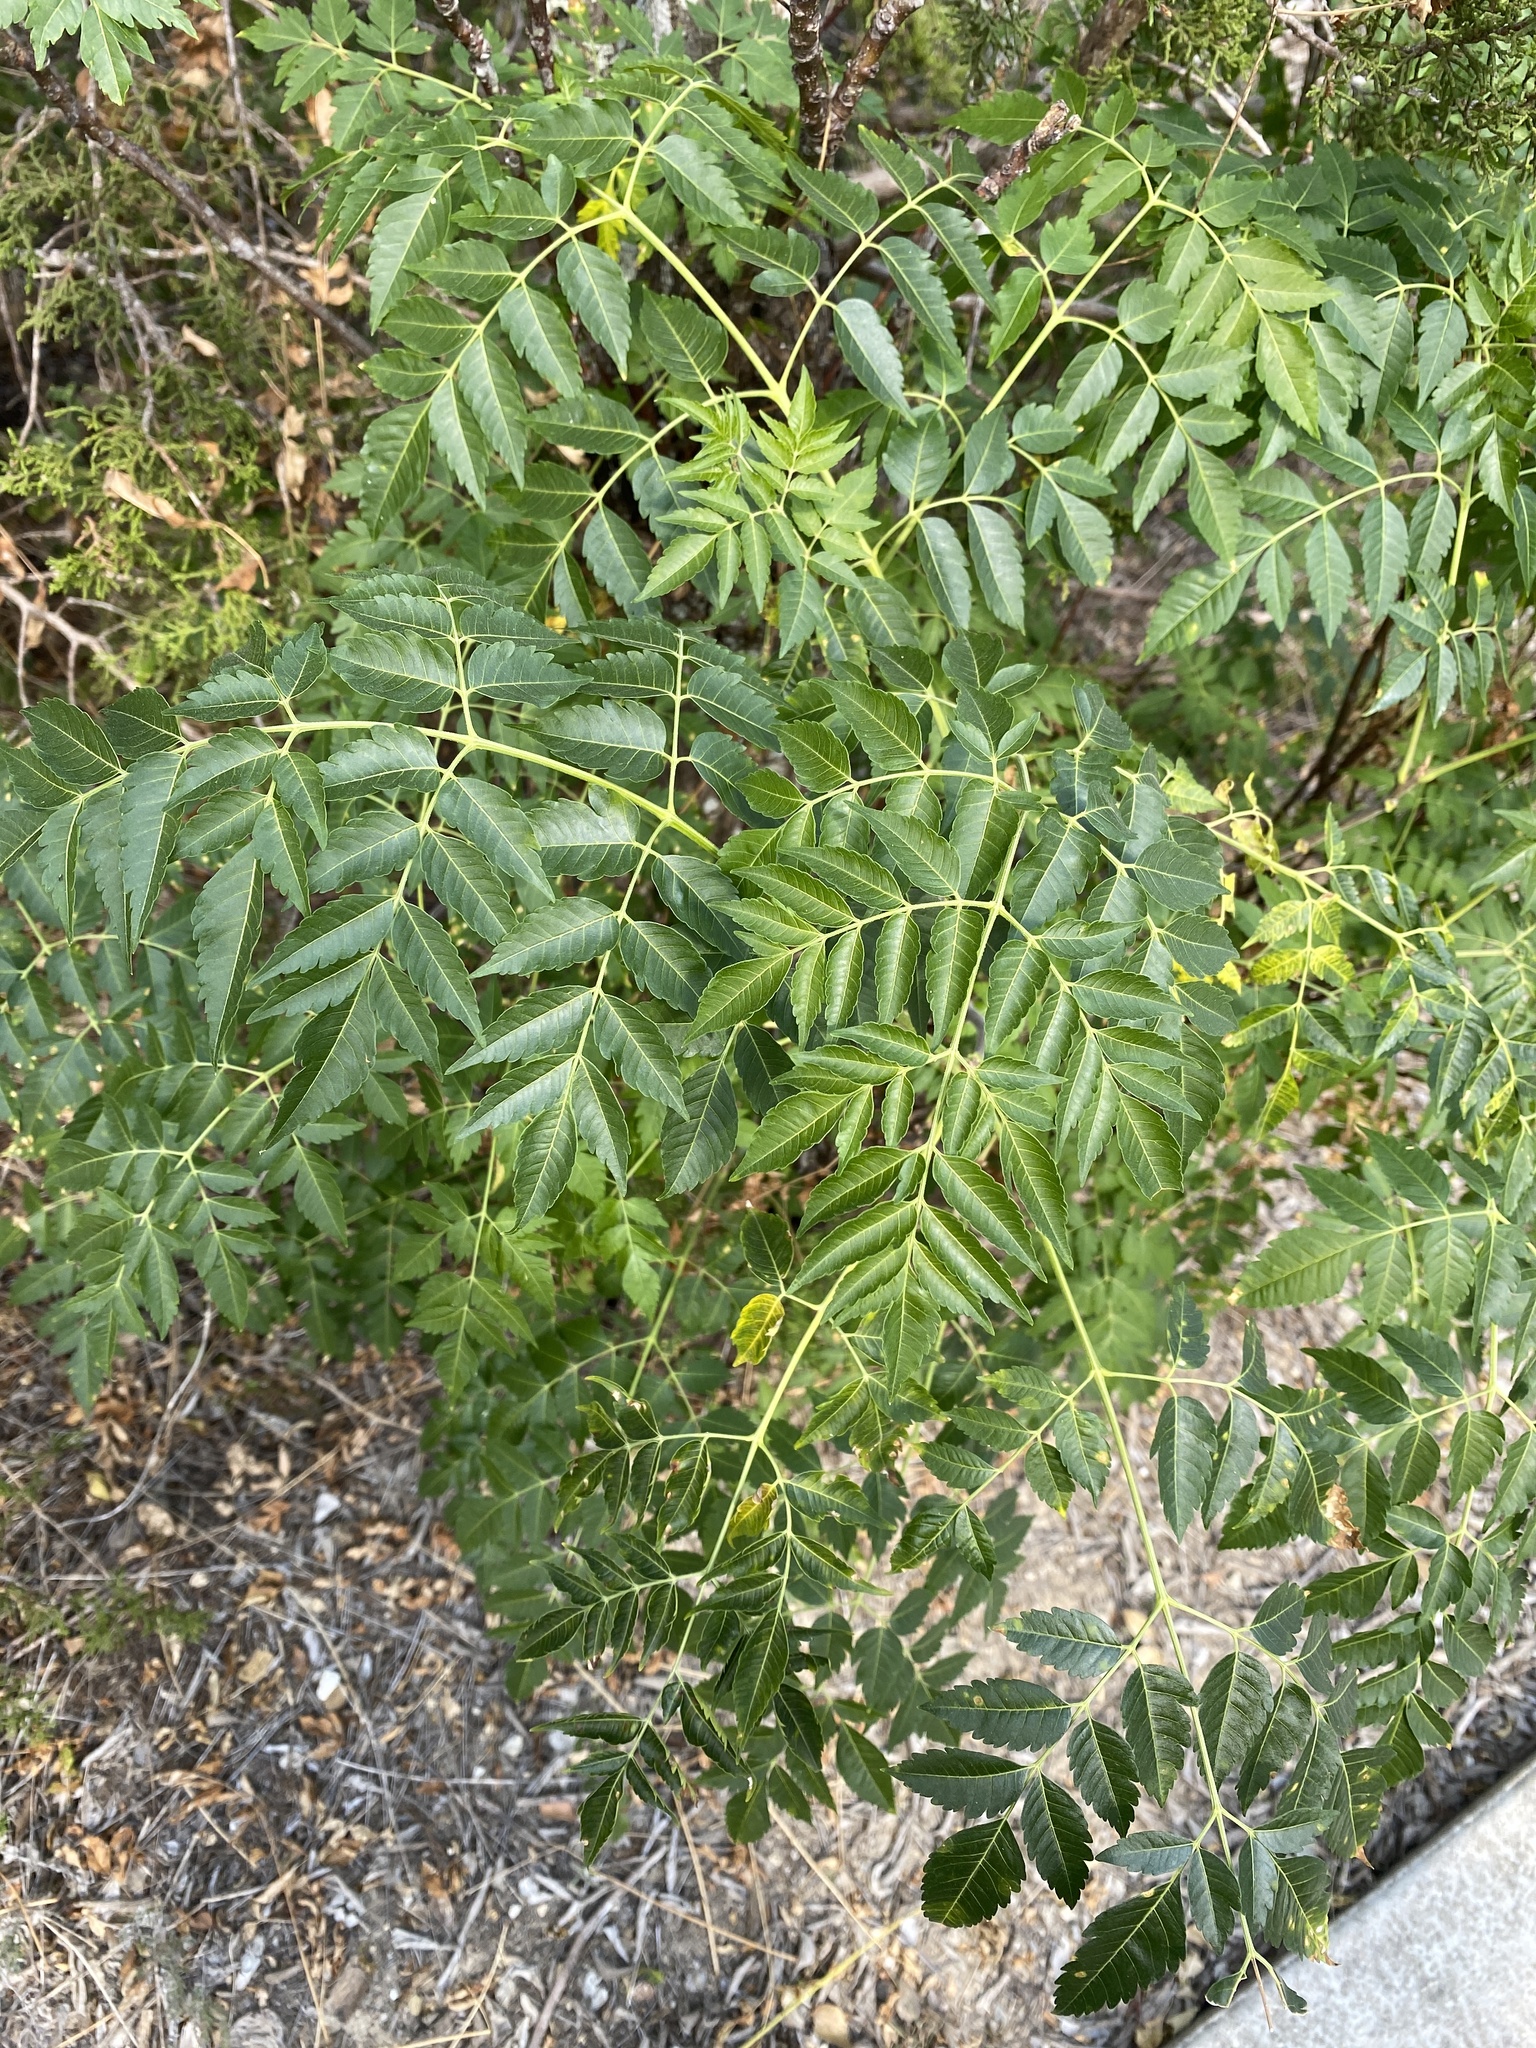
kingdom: Plantae
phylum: Tracheophyta
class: Magnoliopsida
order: Sapindales
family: Meliaceae
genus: Melia
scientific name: Melia azedarach
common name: Chinaberrytree
